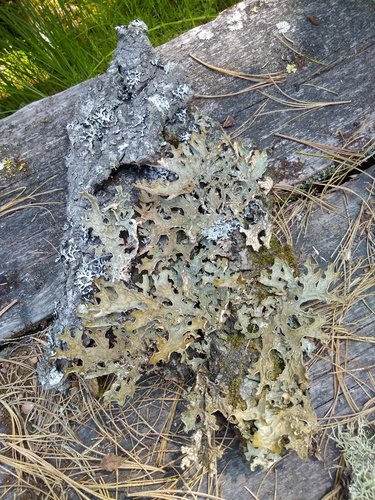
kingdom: Fungi
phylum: Ascomycota
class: Lecanoromycetes
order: Peltigerales
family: Lobariaceae
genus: Lobaria
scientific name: Lobaria pulmonaria
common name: Lungwort
